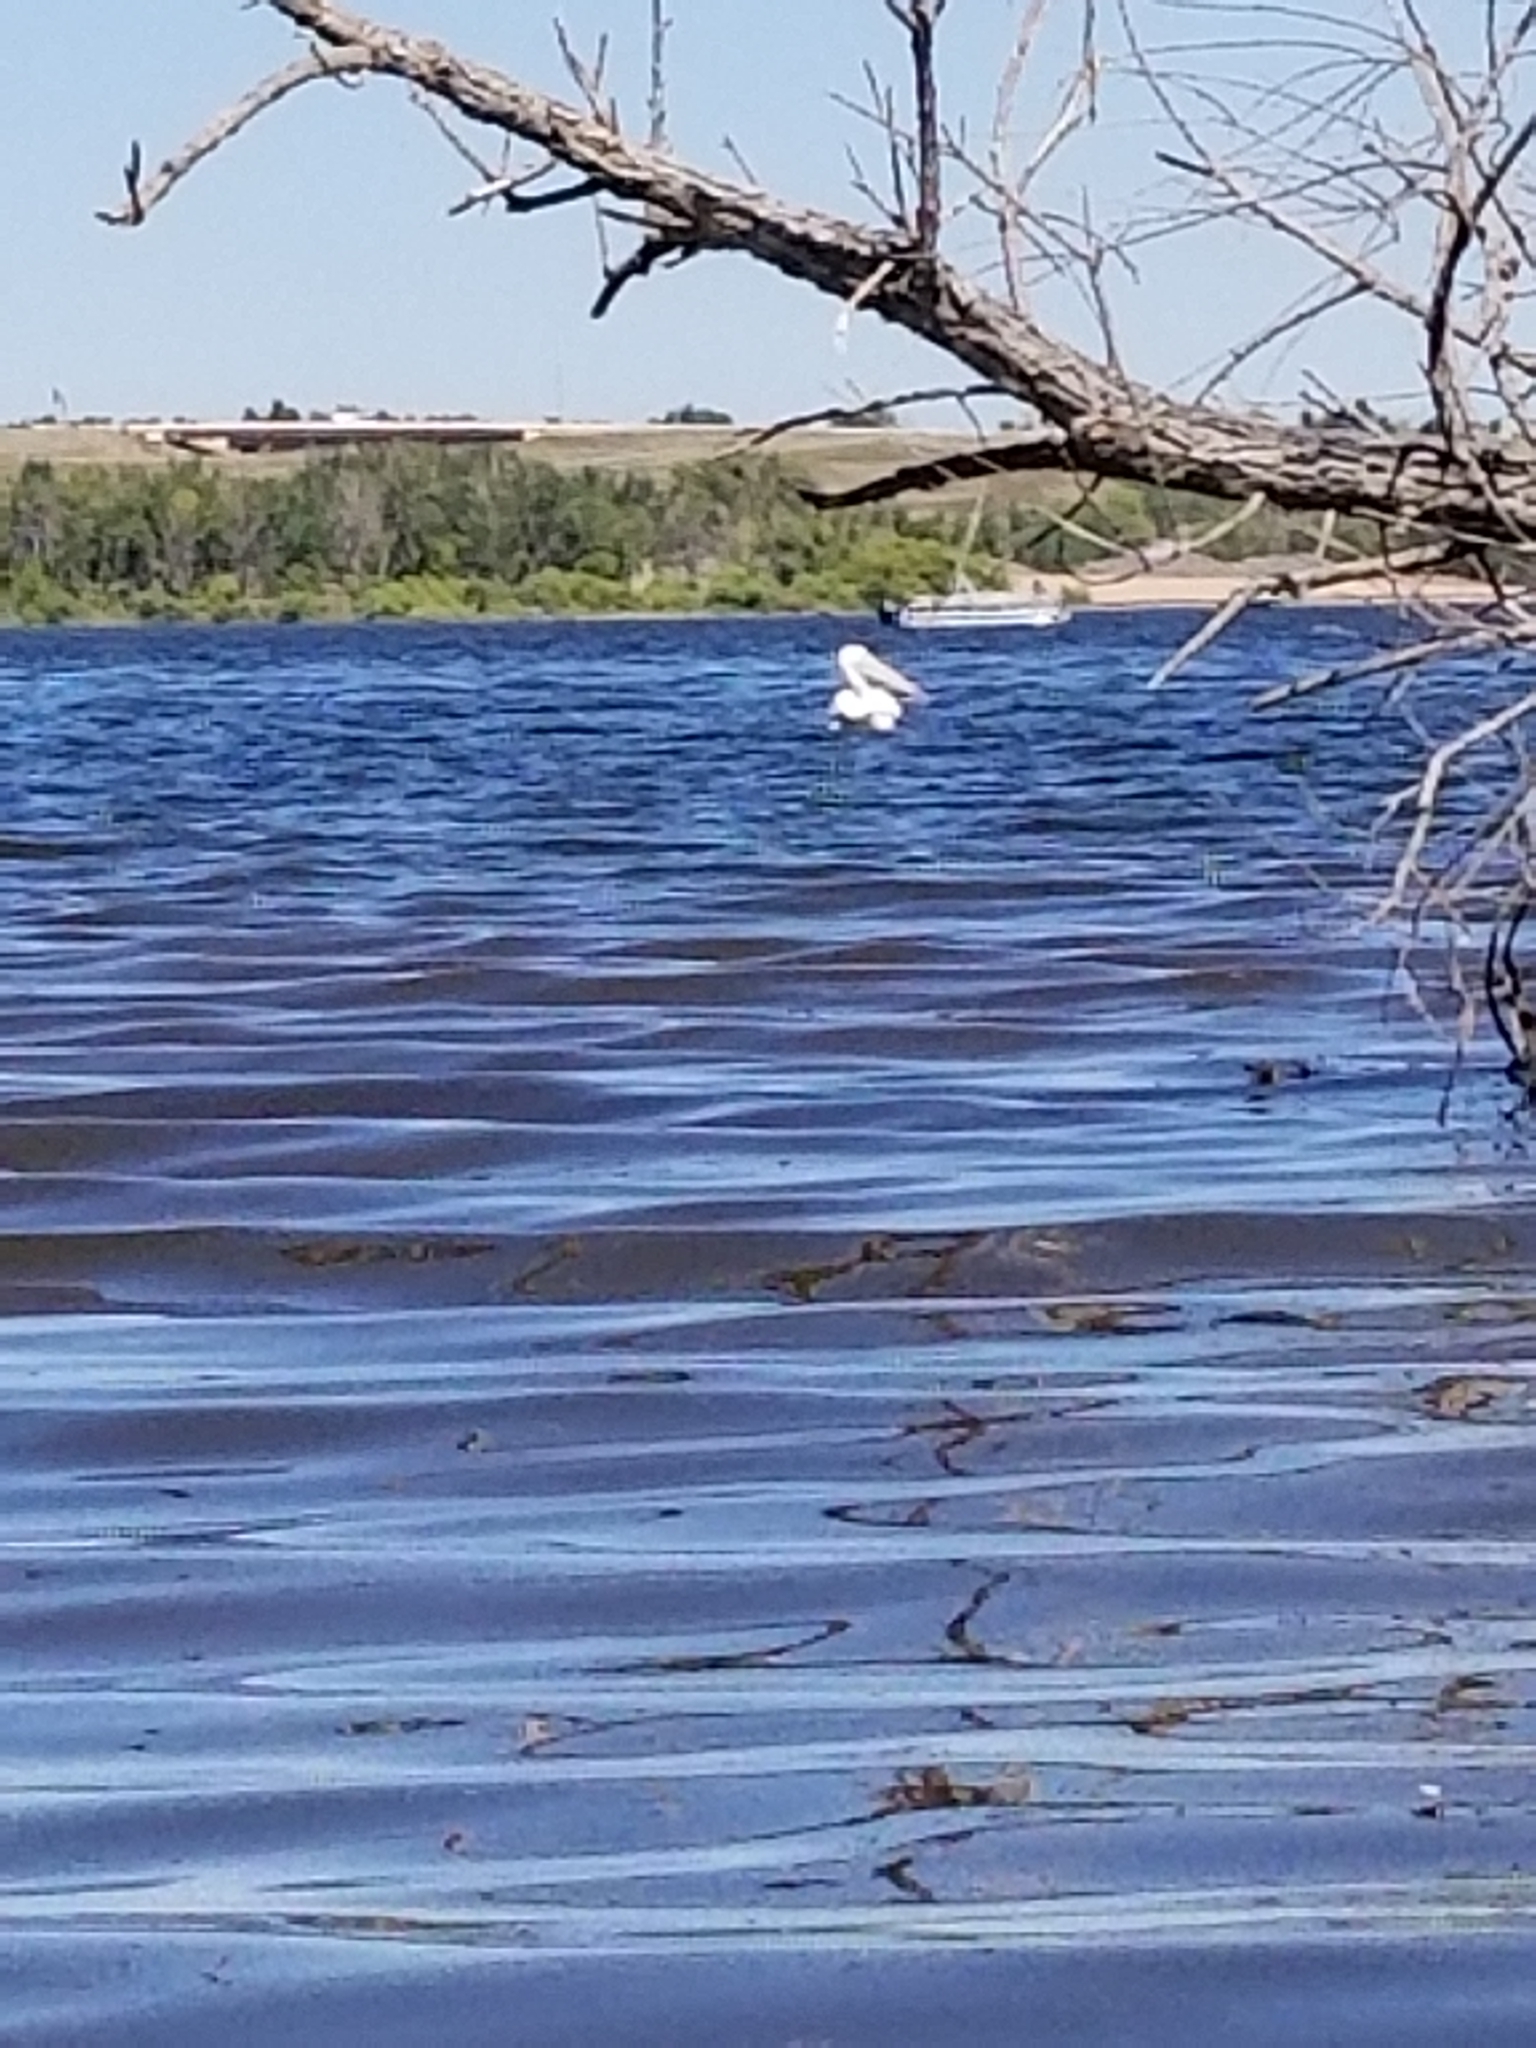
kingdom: Animalia
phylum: Chordata
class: Aves
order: Pelecaniformes
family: Pelecanidae
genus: Pelecanus
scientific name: Pelecanus erythrorhynchos
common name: American white pelican
